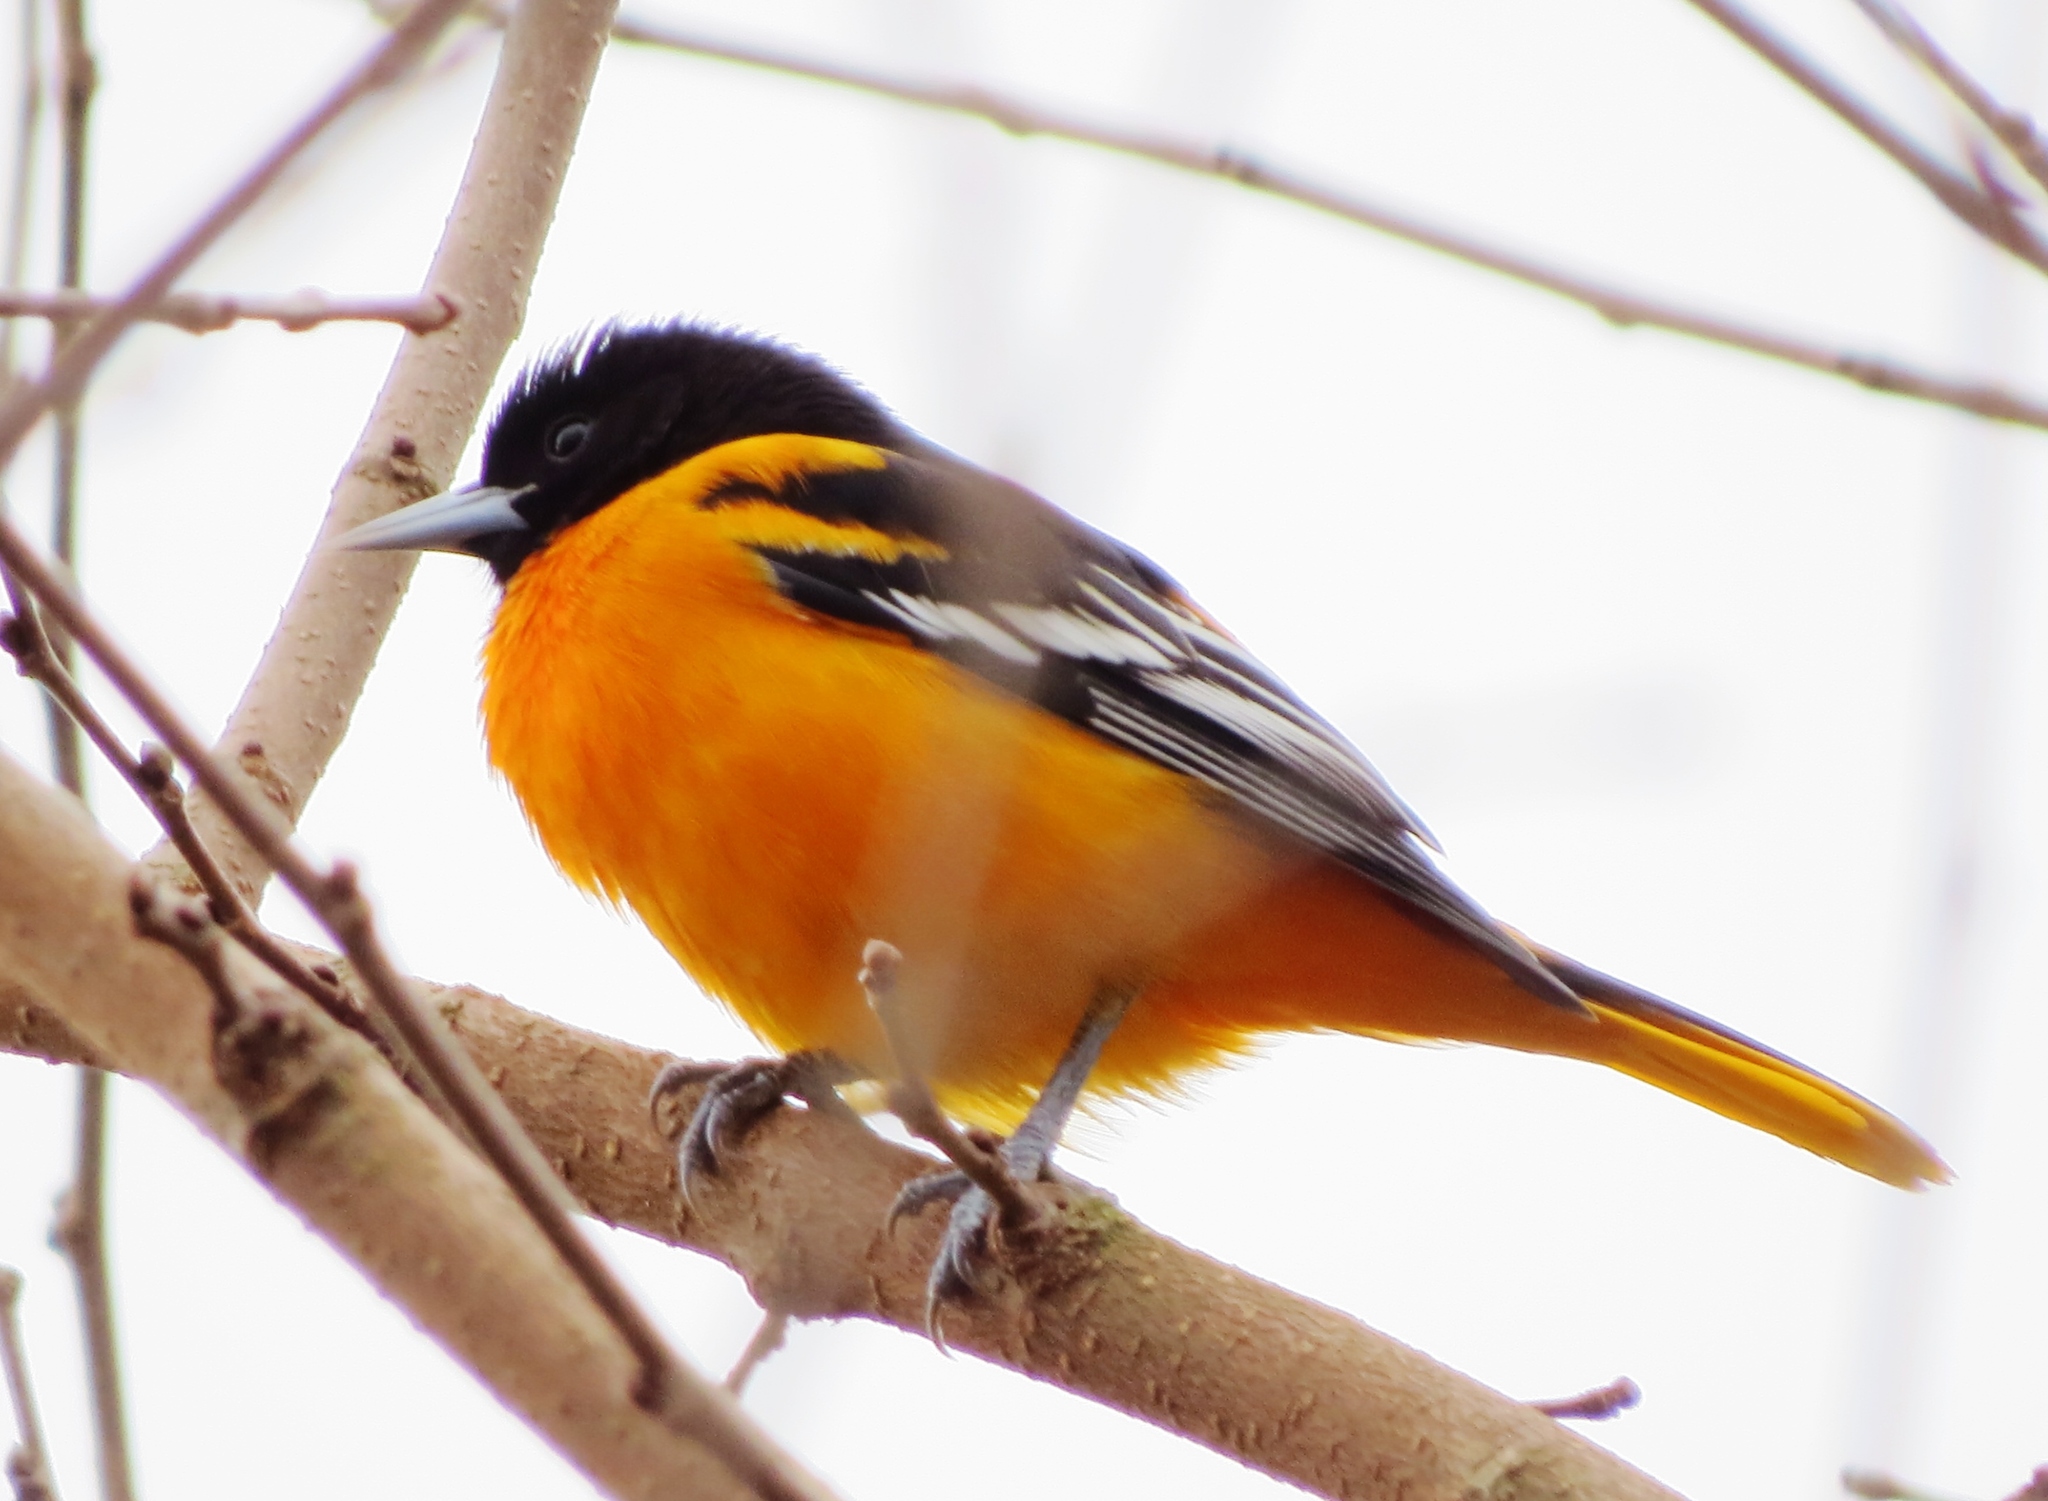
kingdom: Animalia
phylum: Chordata
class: Aves
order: Passeriformes
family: Icteridae
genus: Icterus
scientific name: Icterus galbula
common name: Baltimore oriole
